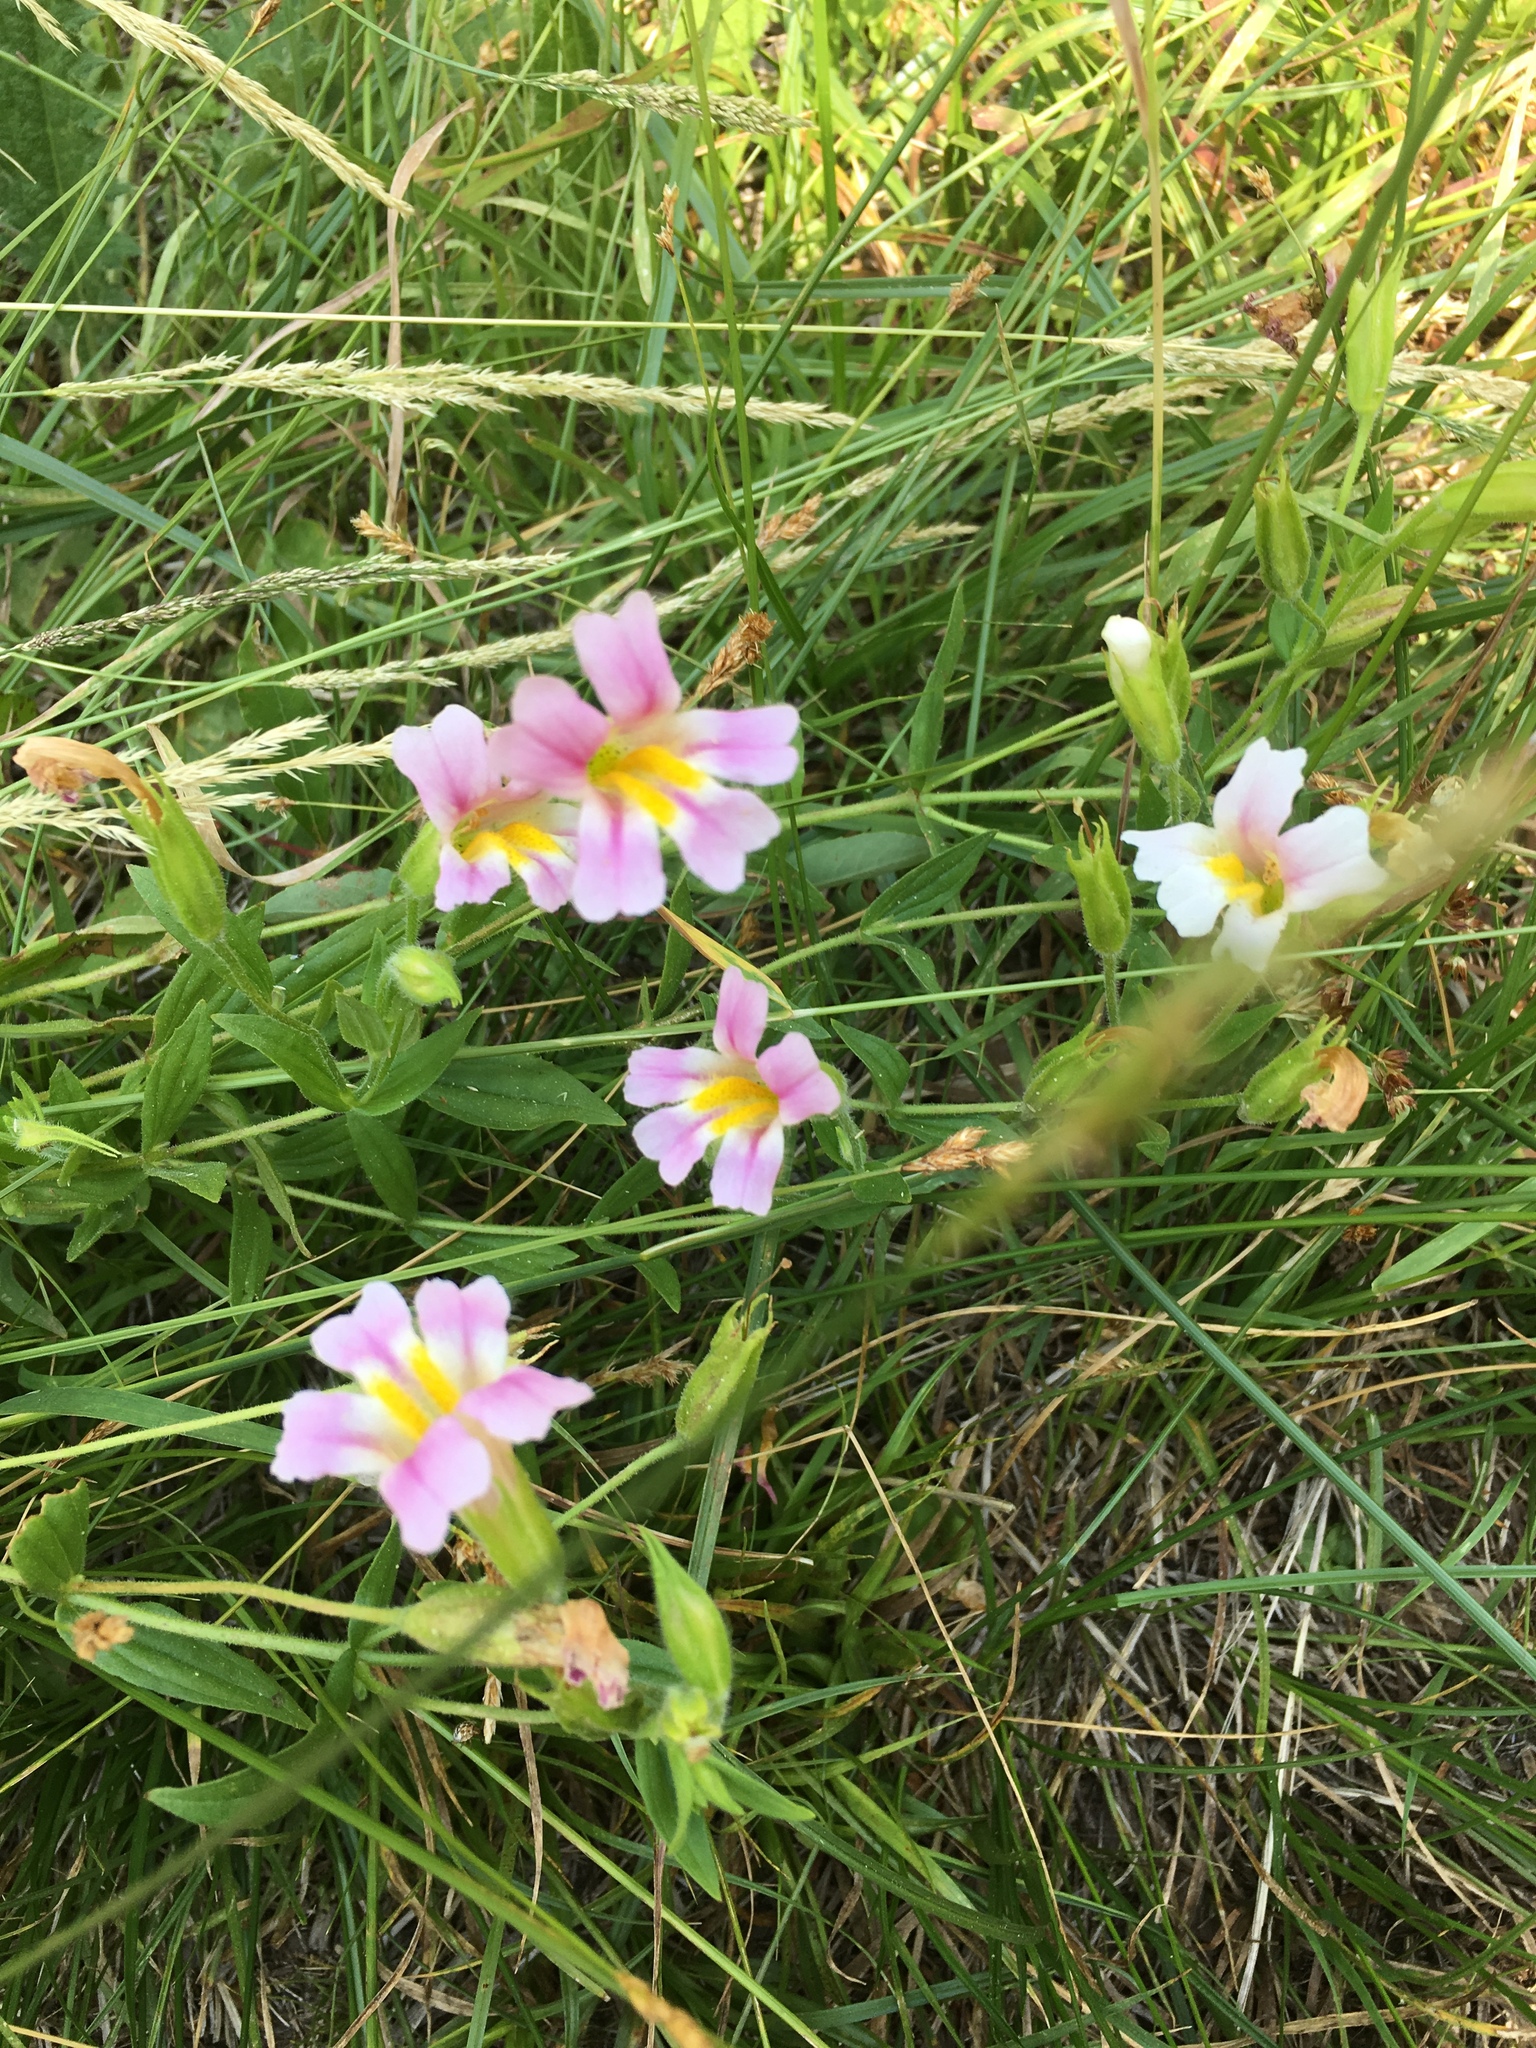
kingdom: Plantae
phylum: Tracheophyta
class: Magnoliopsida
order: Lamiales
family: Phrymaceae
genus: Erythranthe
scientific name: Erythranthe erubescens
